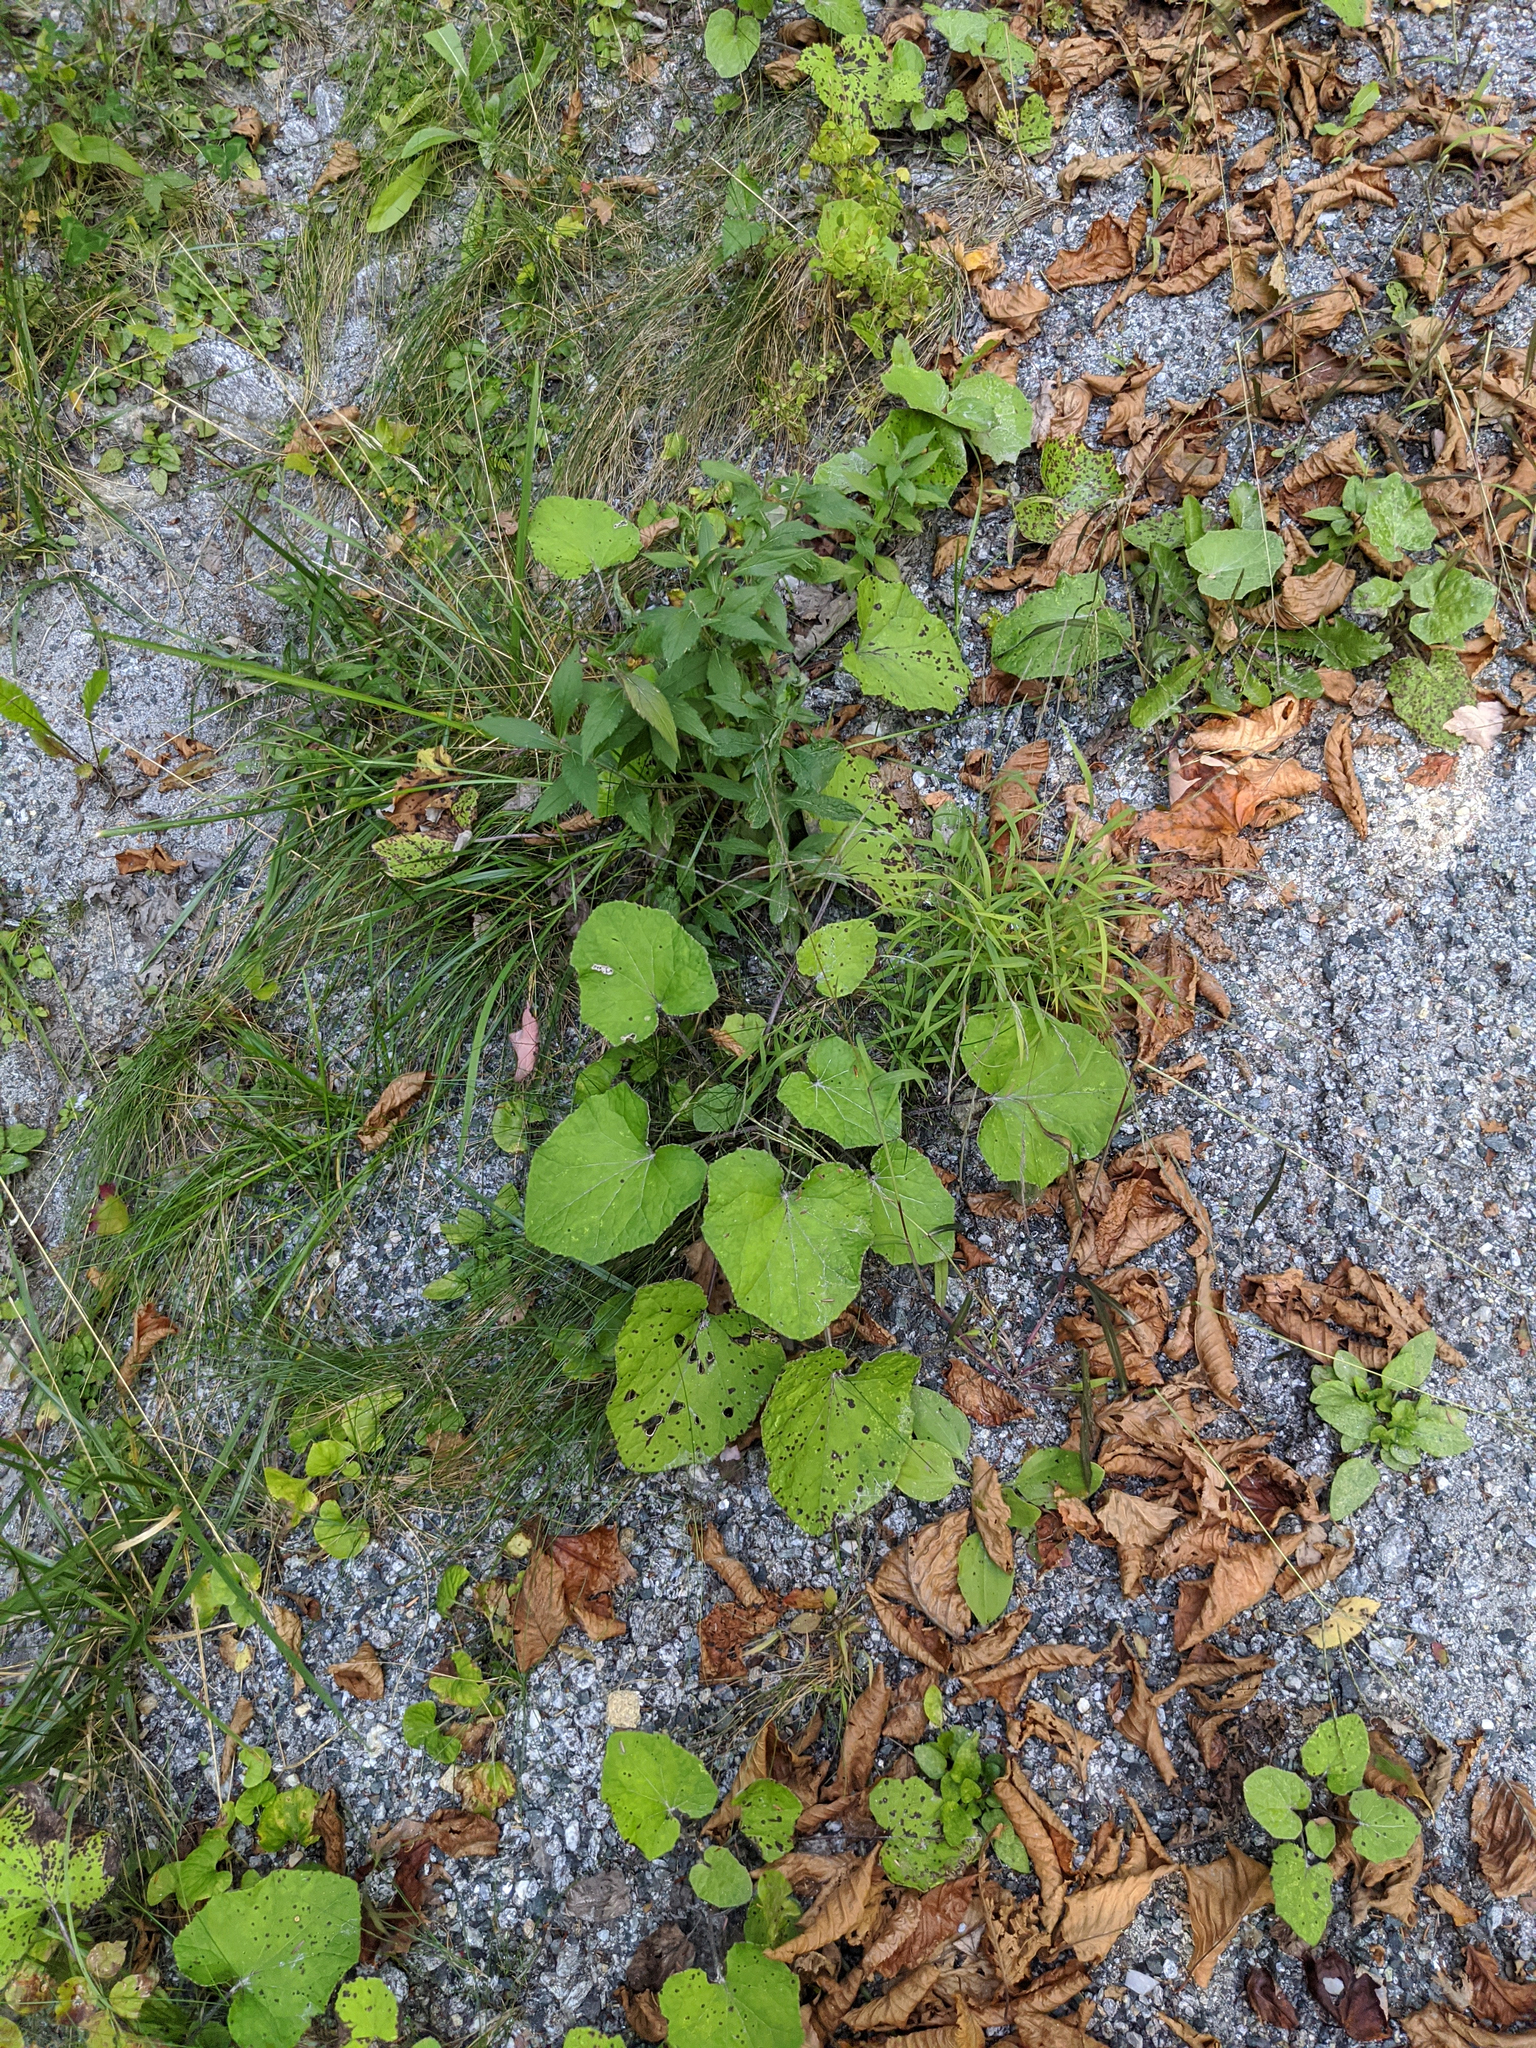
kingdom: Plantae
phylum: Tracheophyta
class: Magnoliopsida
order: Asterales
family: Asteraceae
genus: Tussilago
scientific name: Tussilago farfara
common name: Coltsfoot
